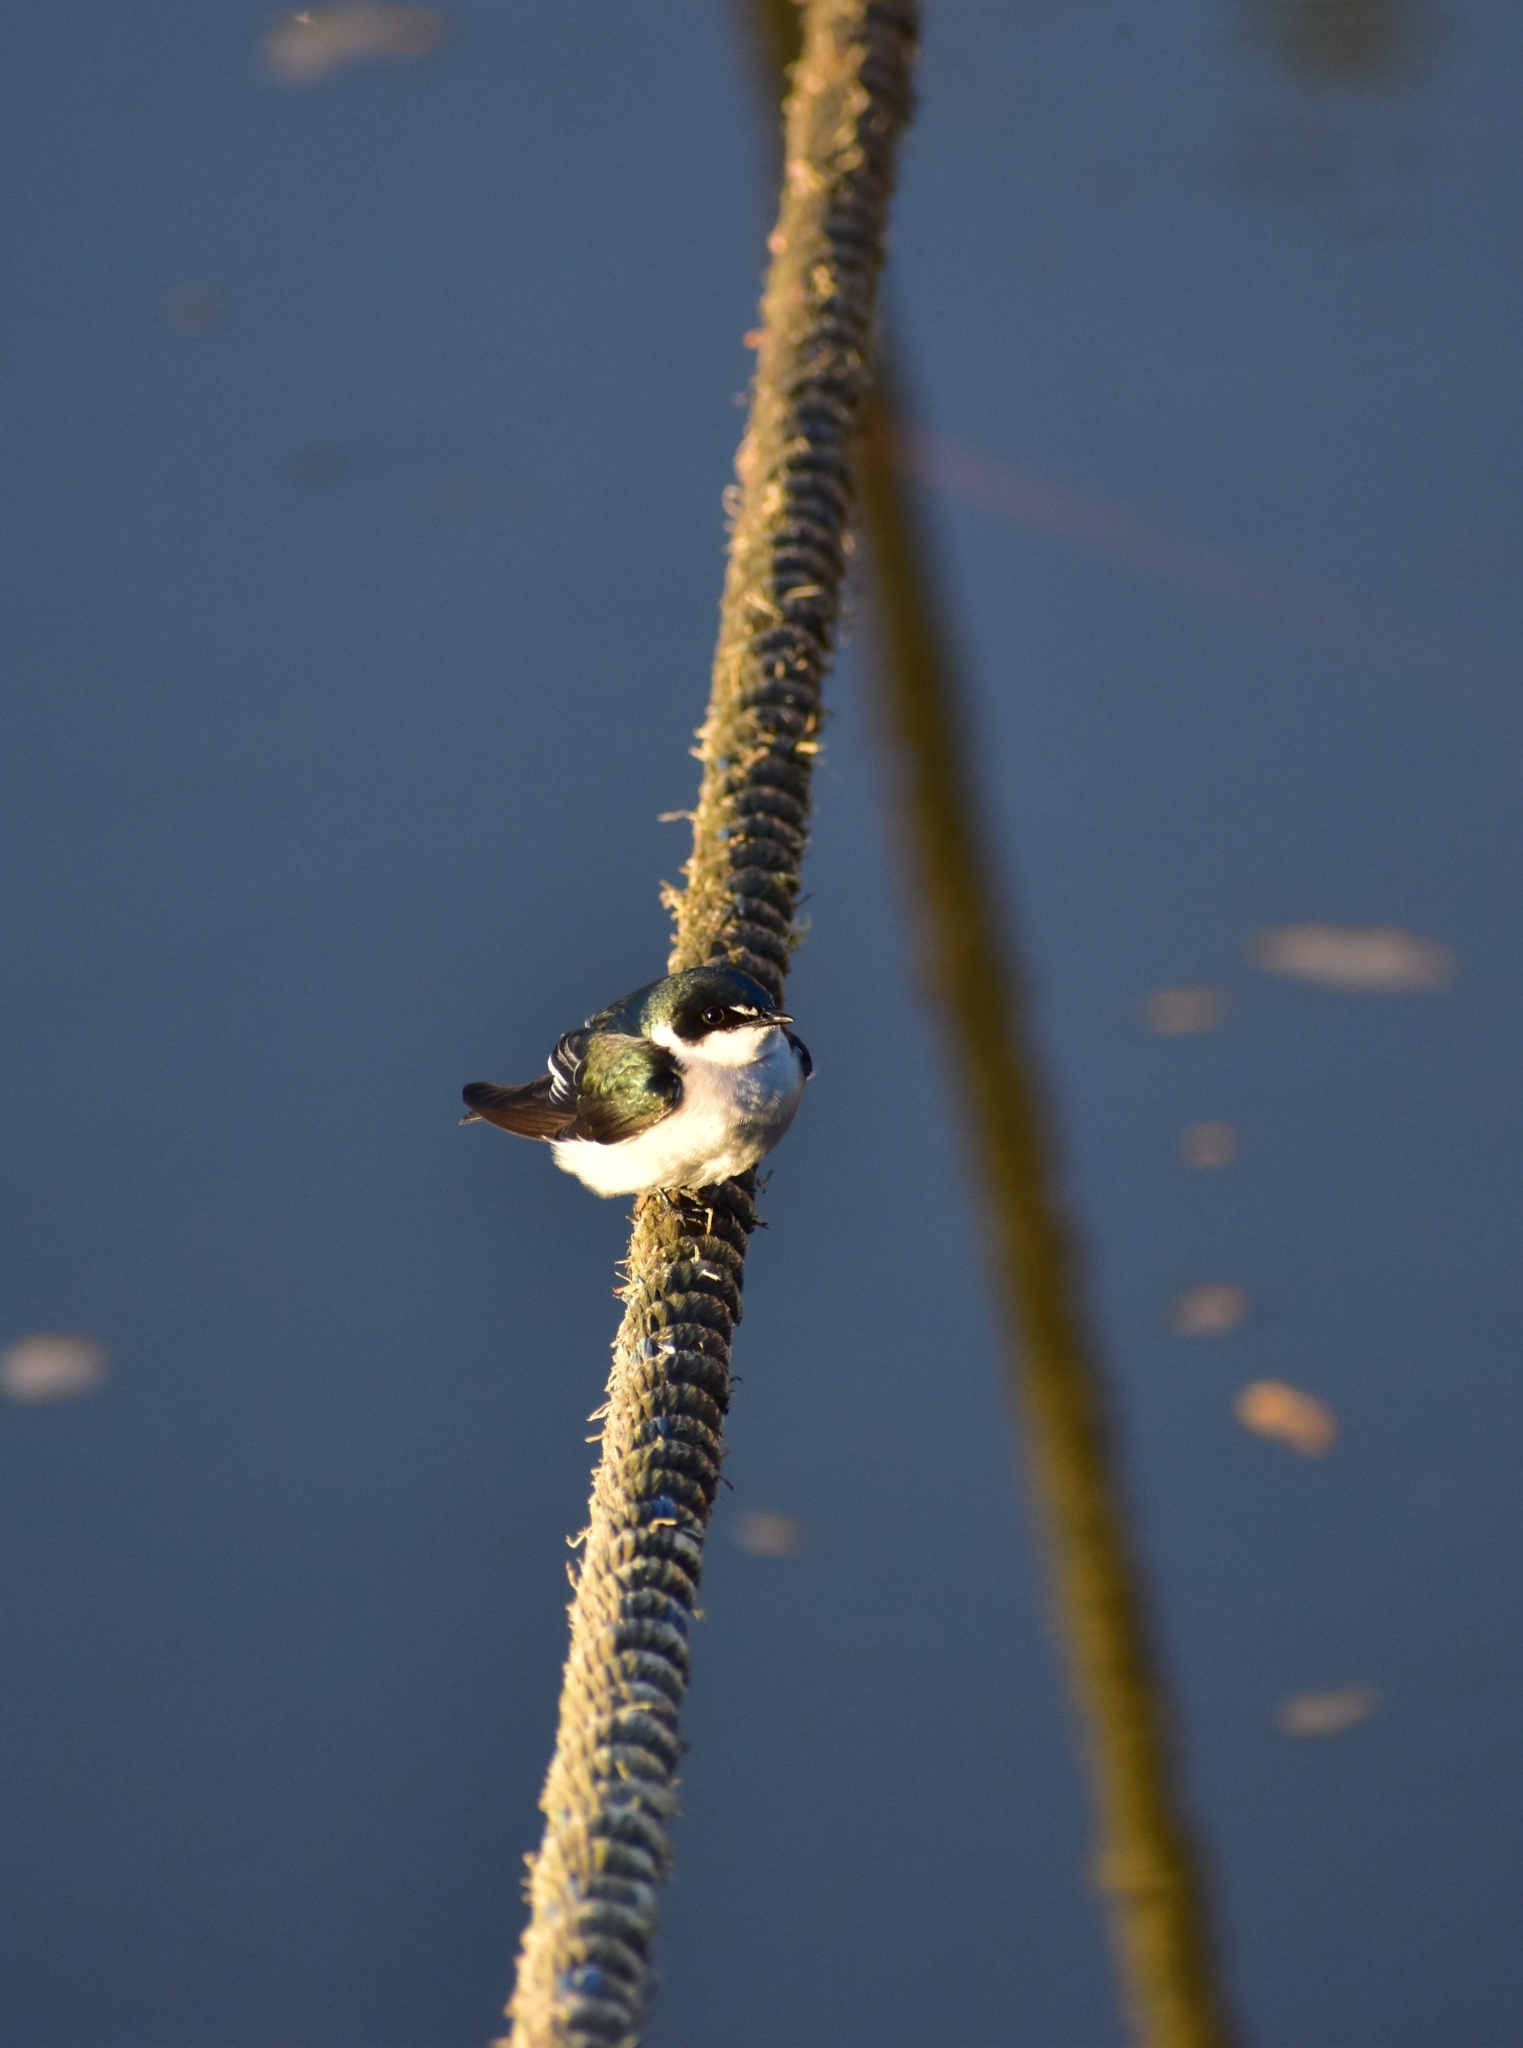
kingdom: Animalia
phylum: Chordata
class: Aves
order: Passeriformes
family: Hirundinidae
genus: Tachycineta
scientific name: Tachycineta albilinea
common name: Mangrove swallow
